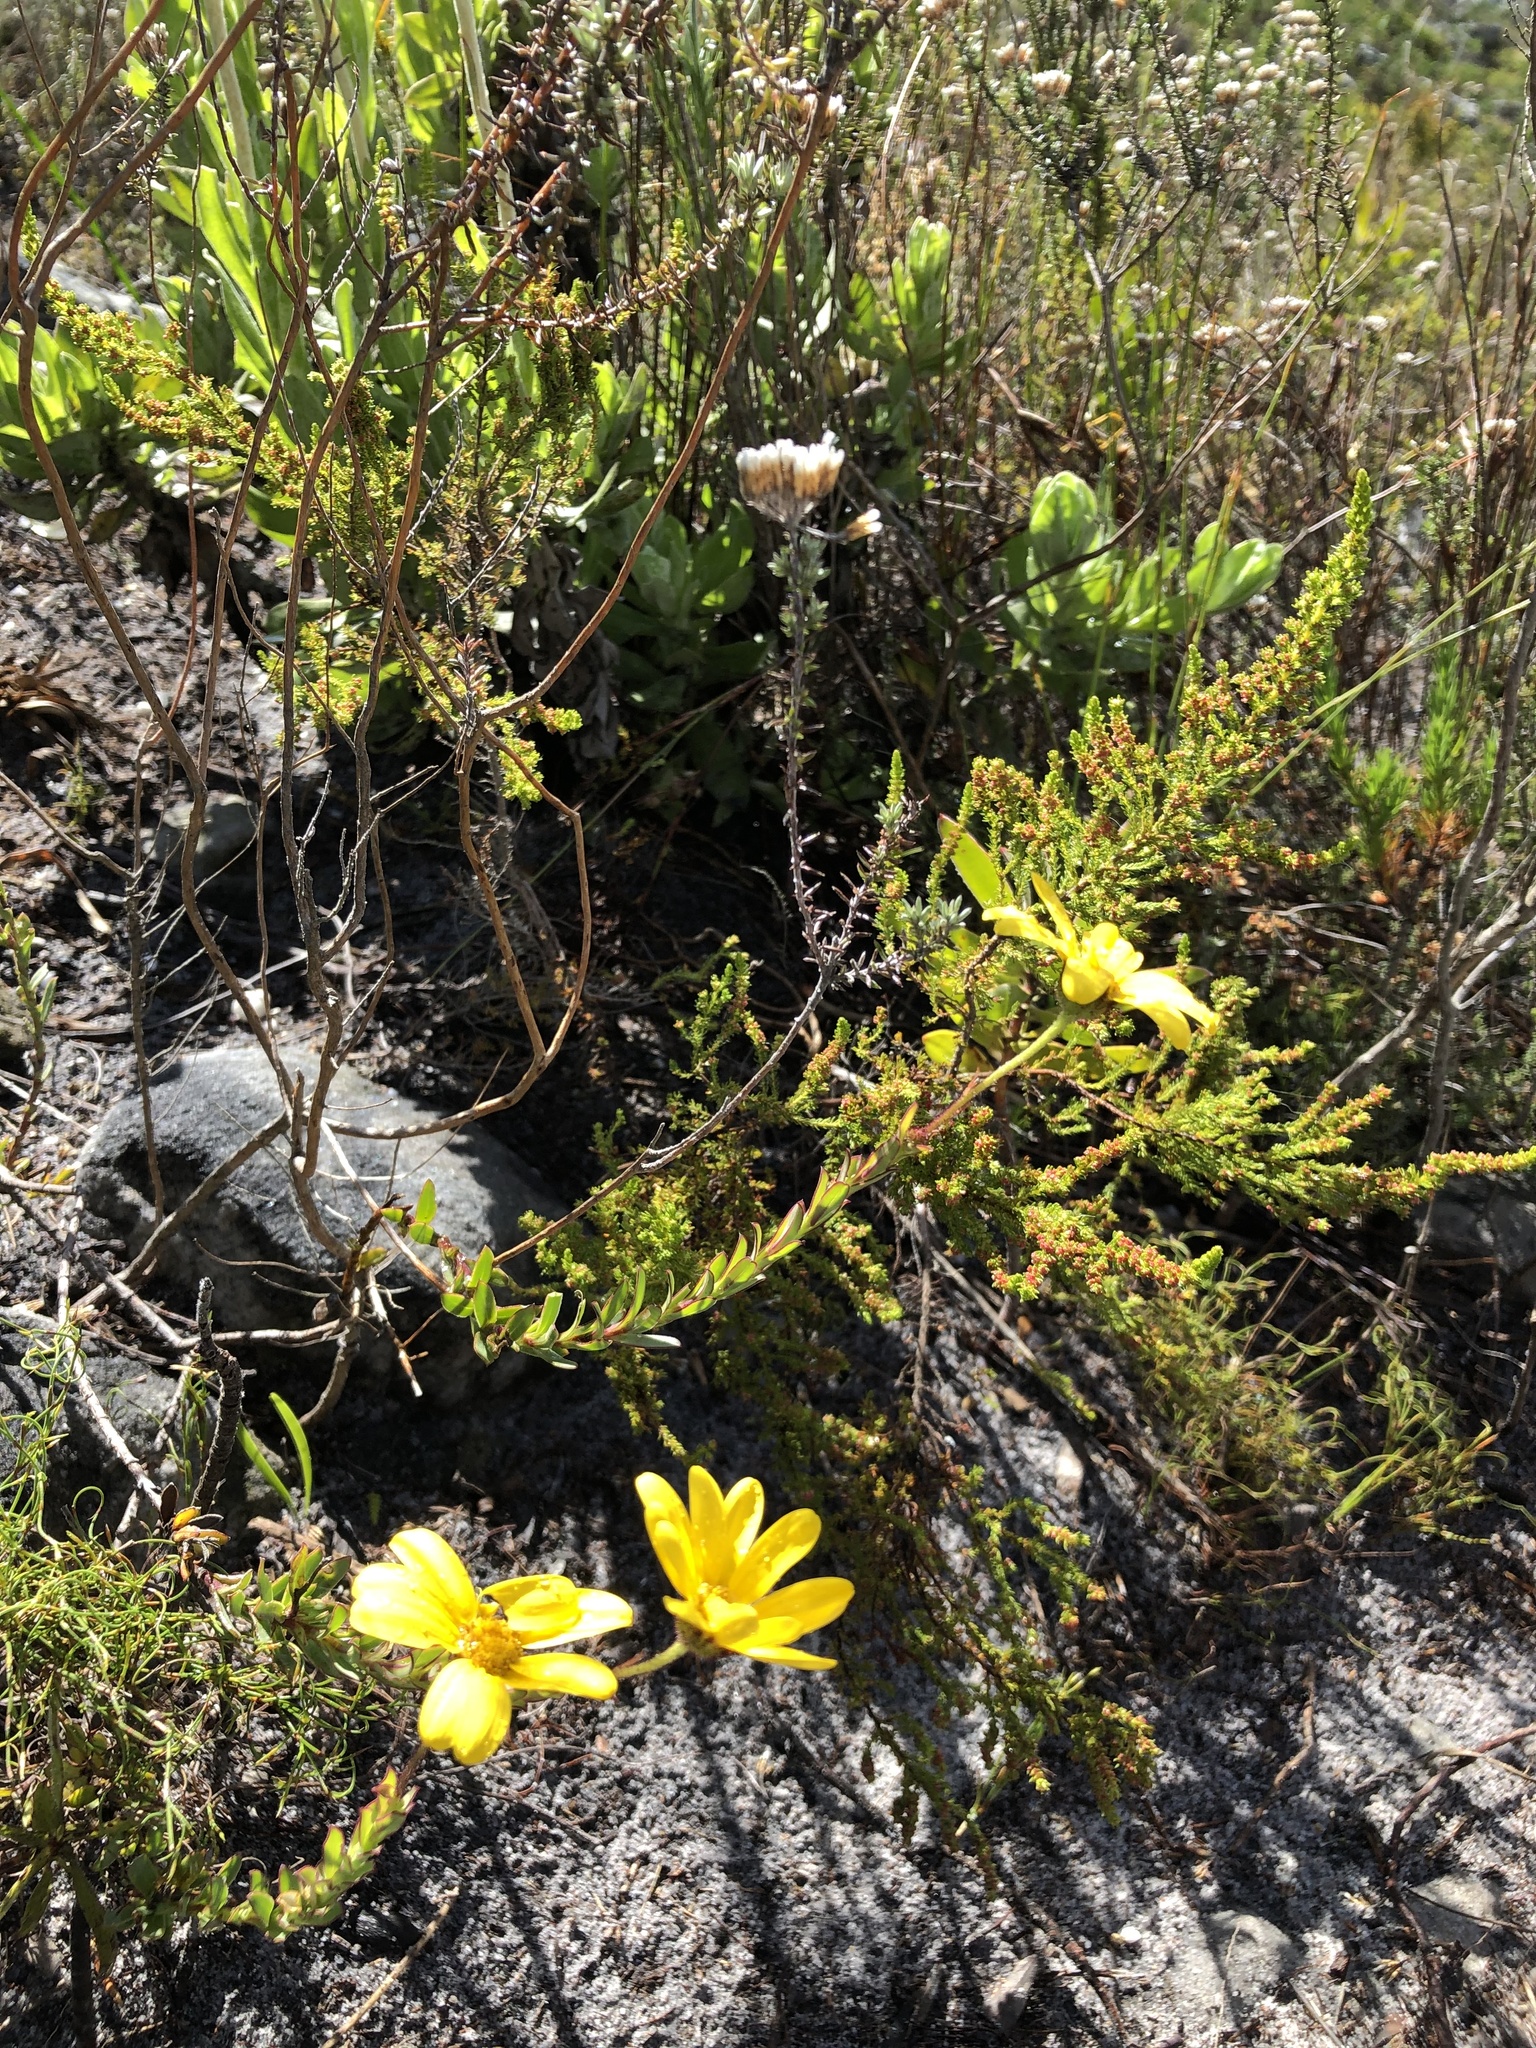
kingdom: Plantae
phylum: Tracheophyta
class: Magnoliopsida
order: Asterales
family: Asteraceae
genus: Osteospermum
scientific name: Osteospermum polygaloides
